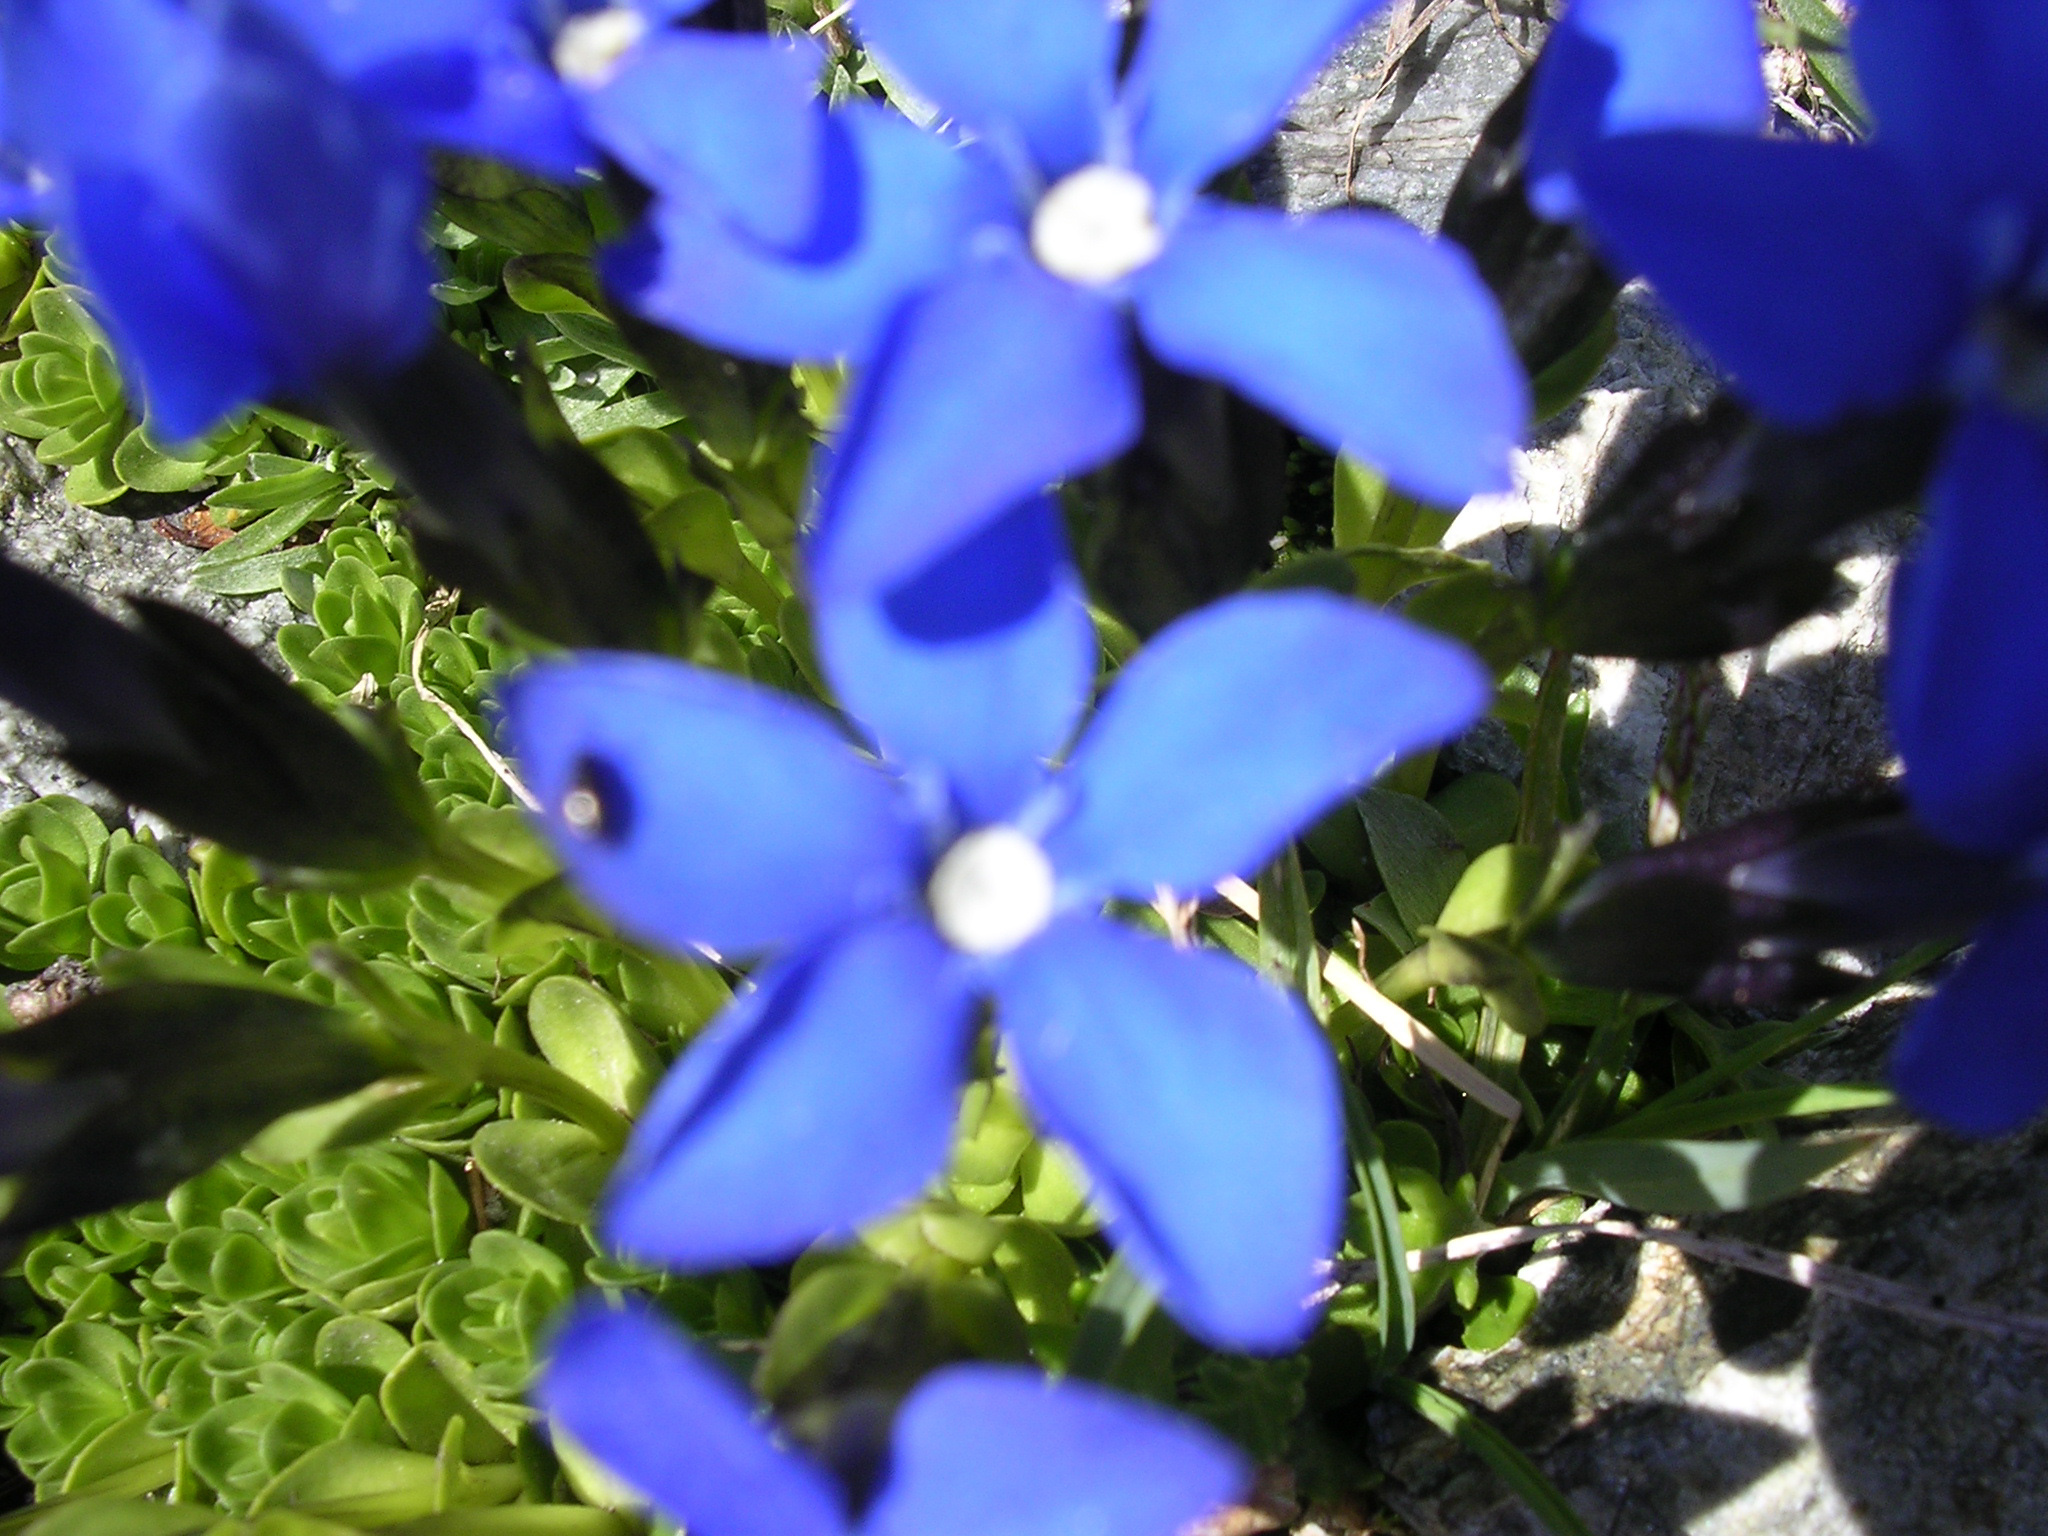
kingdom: Plantae
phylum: Tracheophyta
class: Magnoliopsida
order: Gentianales
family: Gentianaceae
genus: Gentiana
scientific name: Gentiana bavarica
